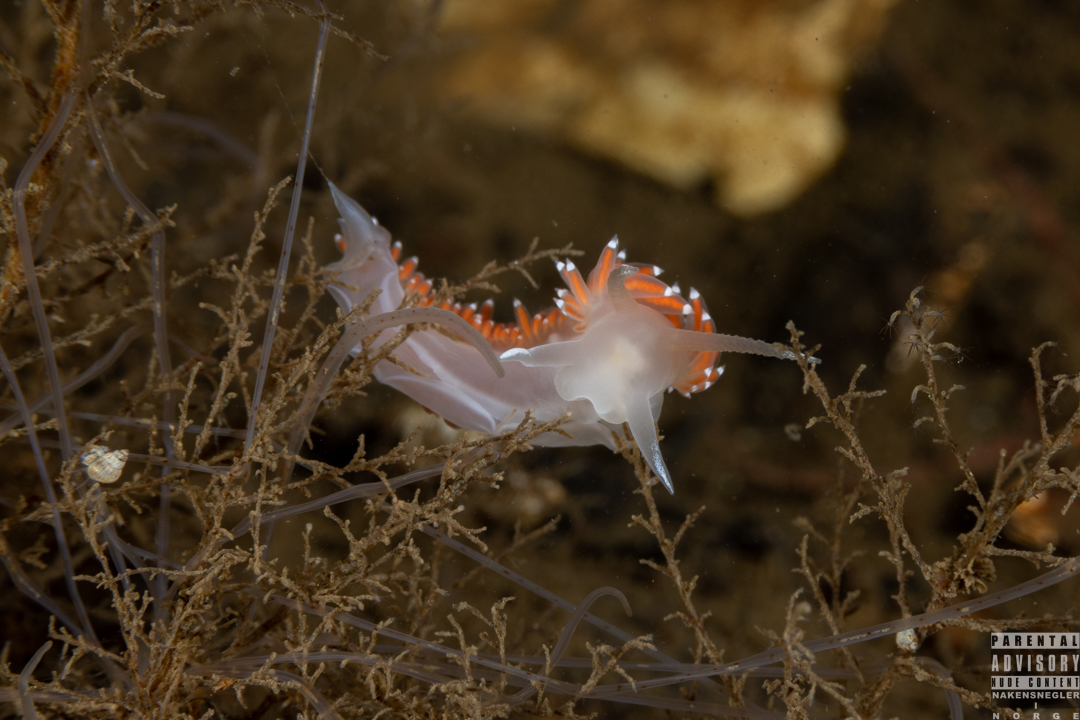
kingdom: Animalia
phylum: Mollusca
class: Gastropoda
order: Nudibranchia
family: Coryphellidae
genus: Coryphella
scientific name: Coryphella verrucosa
